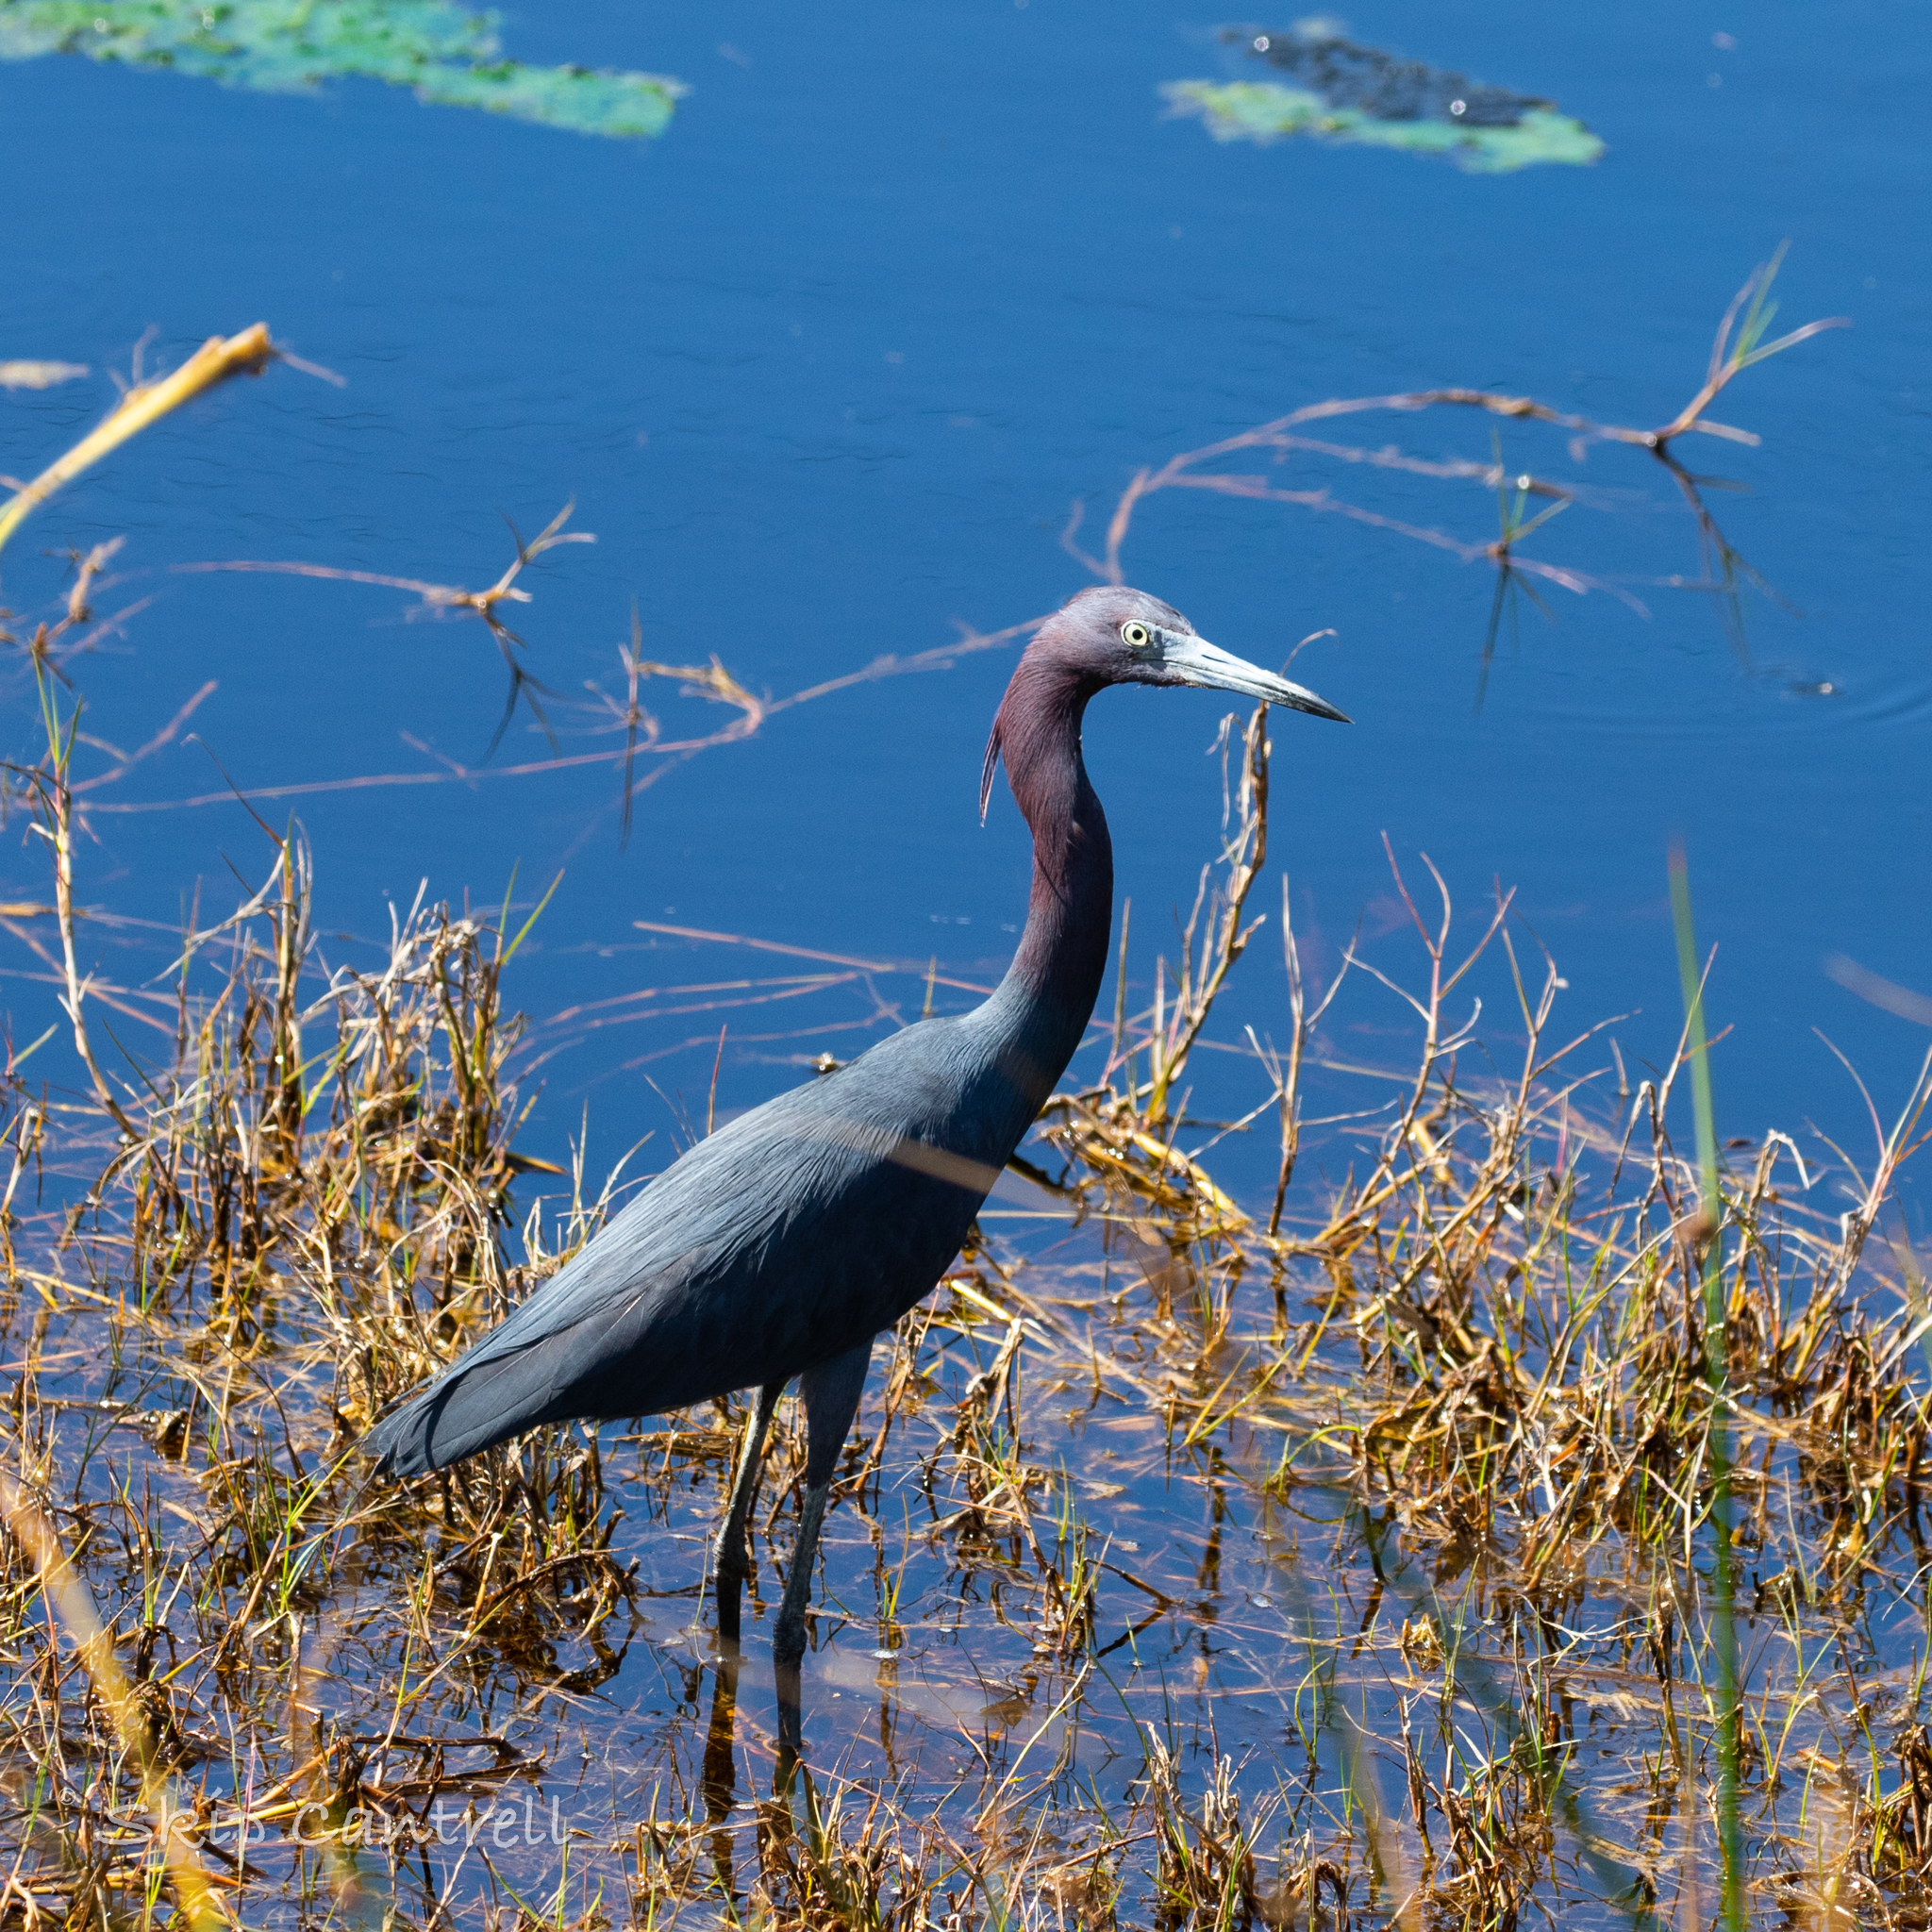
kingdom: Animalia
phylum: Chordata
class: Aves
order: Pelecaniformes
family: Ardeidae
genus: Egretta
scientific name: Egretta caerulea
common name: Little blue heron
